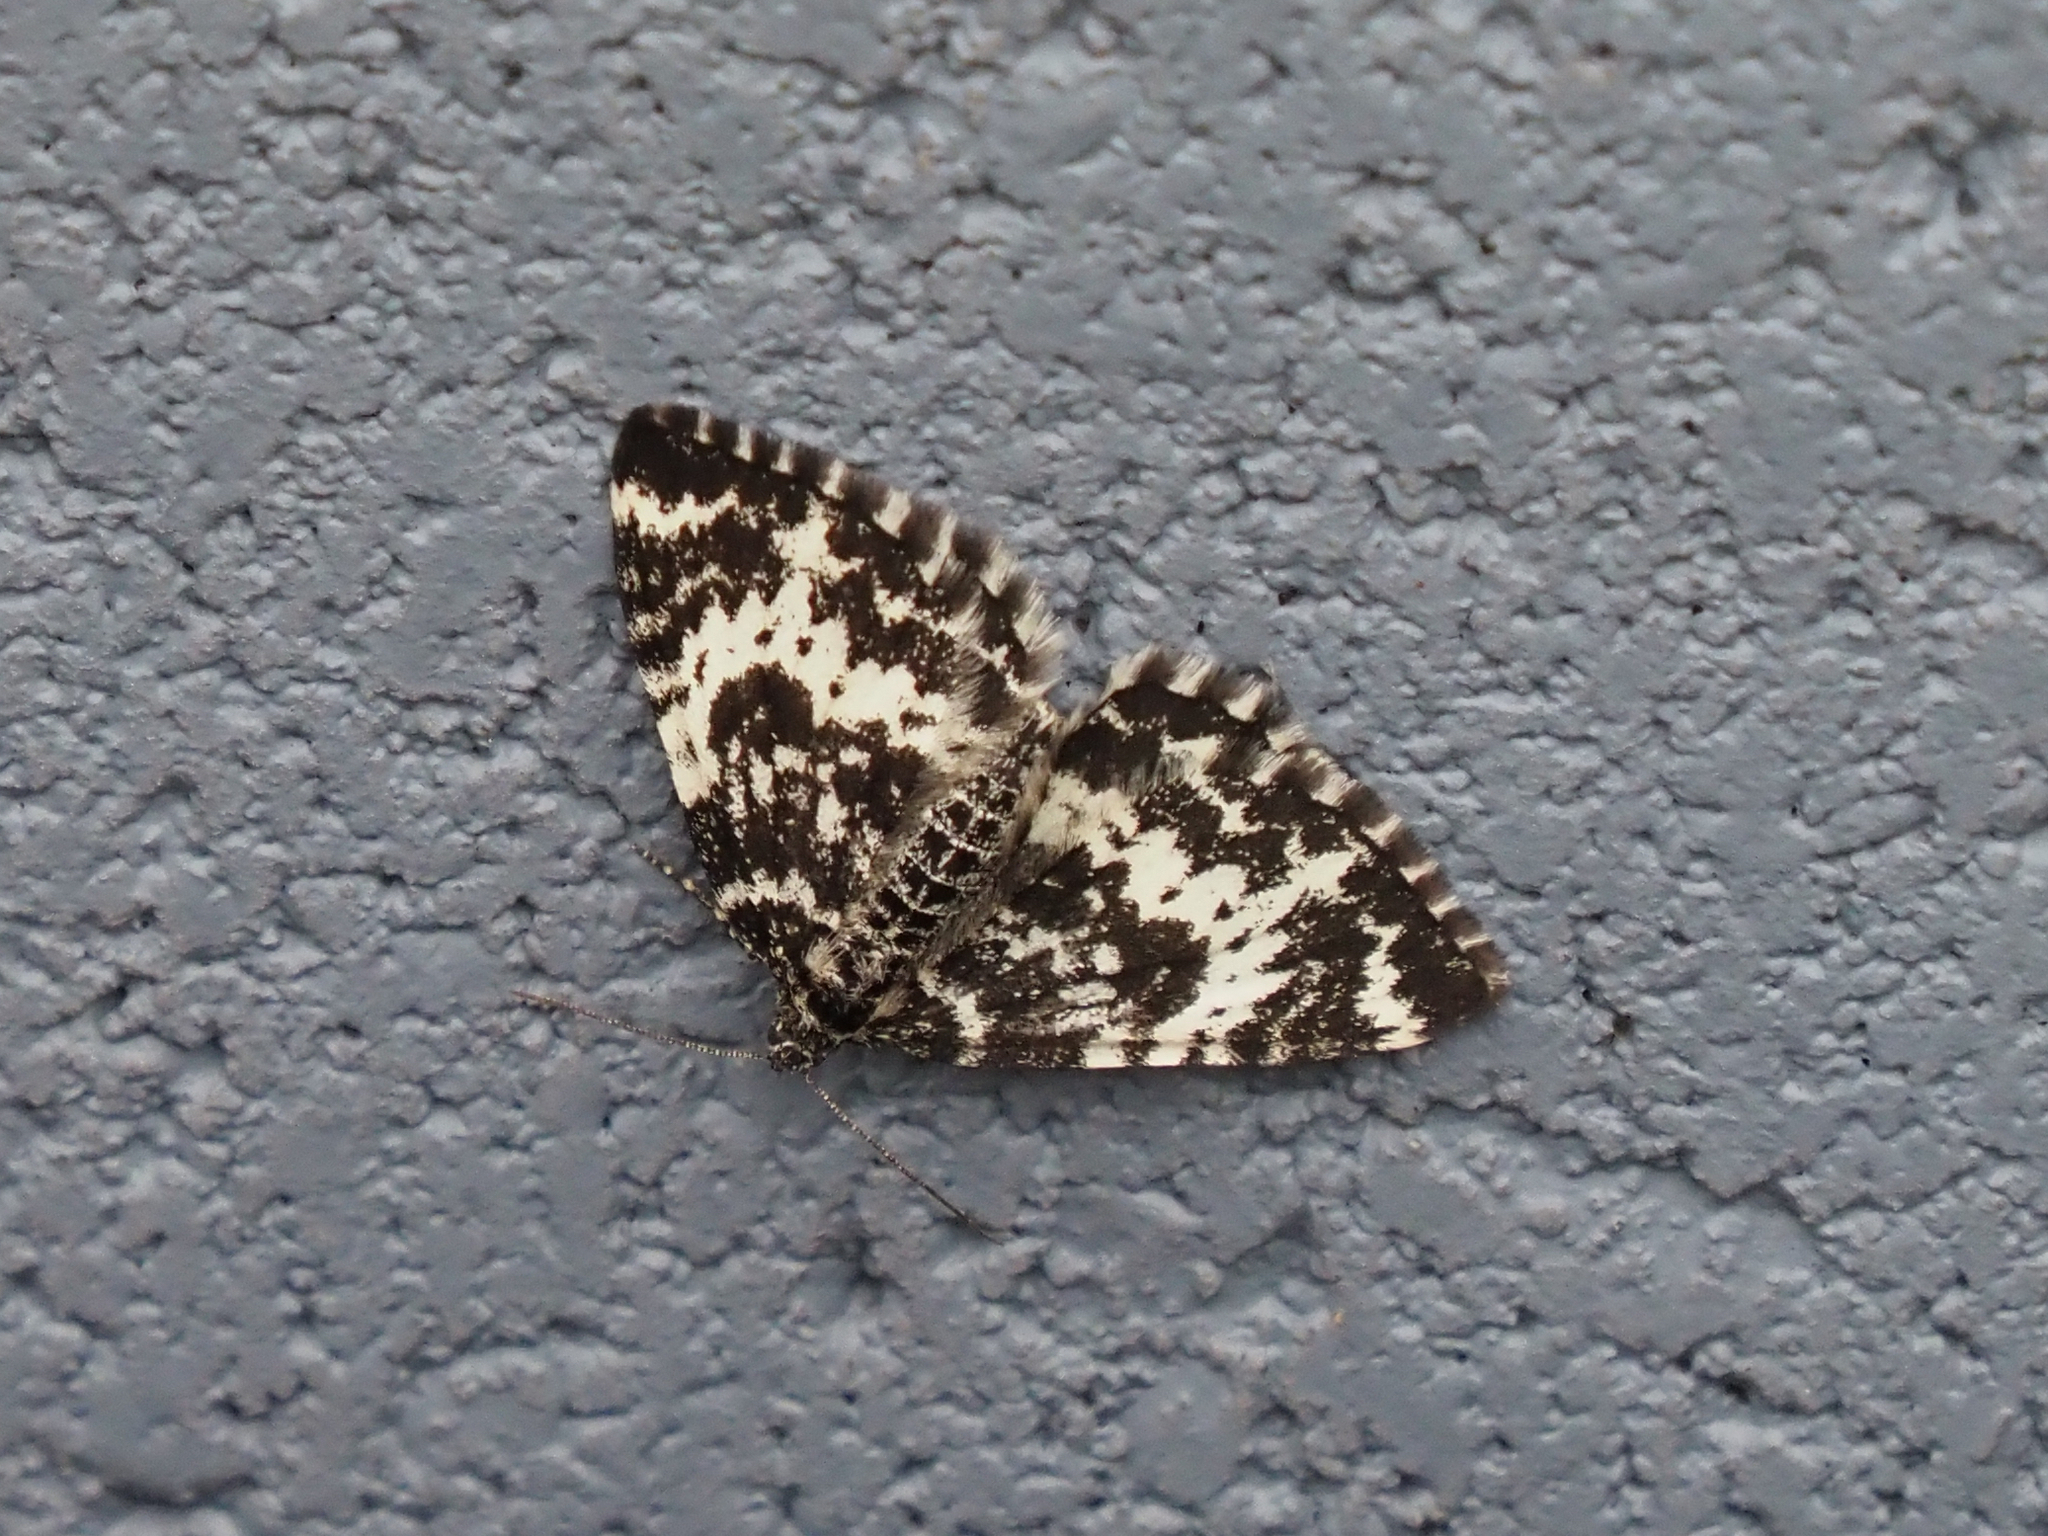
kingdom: Animalia
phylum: Arthropoda
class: Insecta
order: Lepidoptera
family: Geometridae
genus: Rheumaptera
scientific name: Rheumaptera
